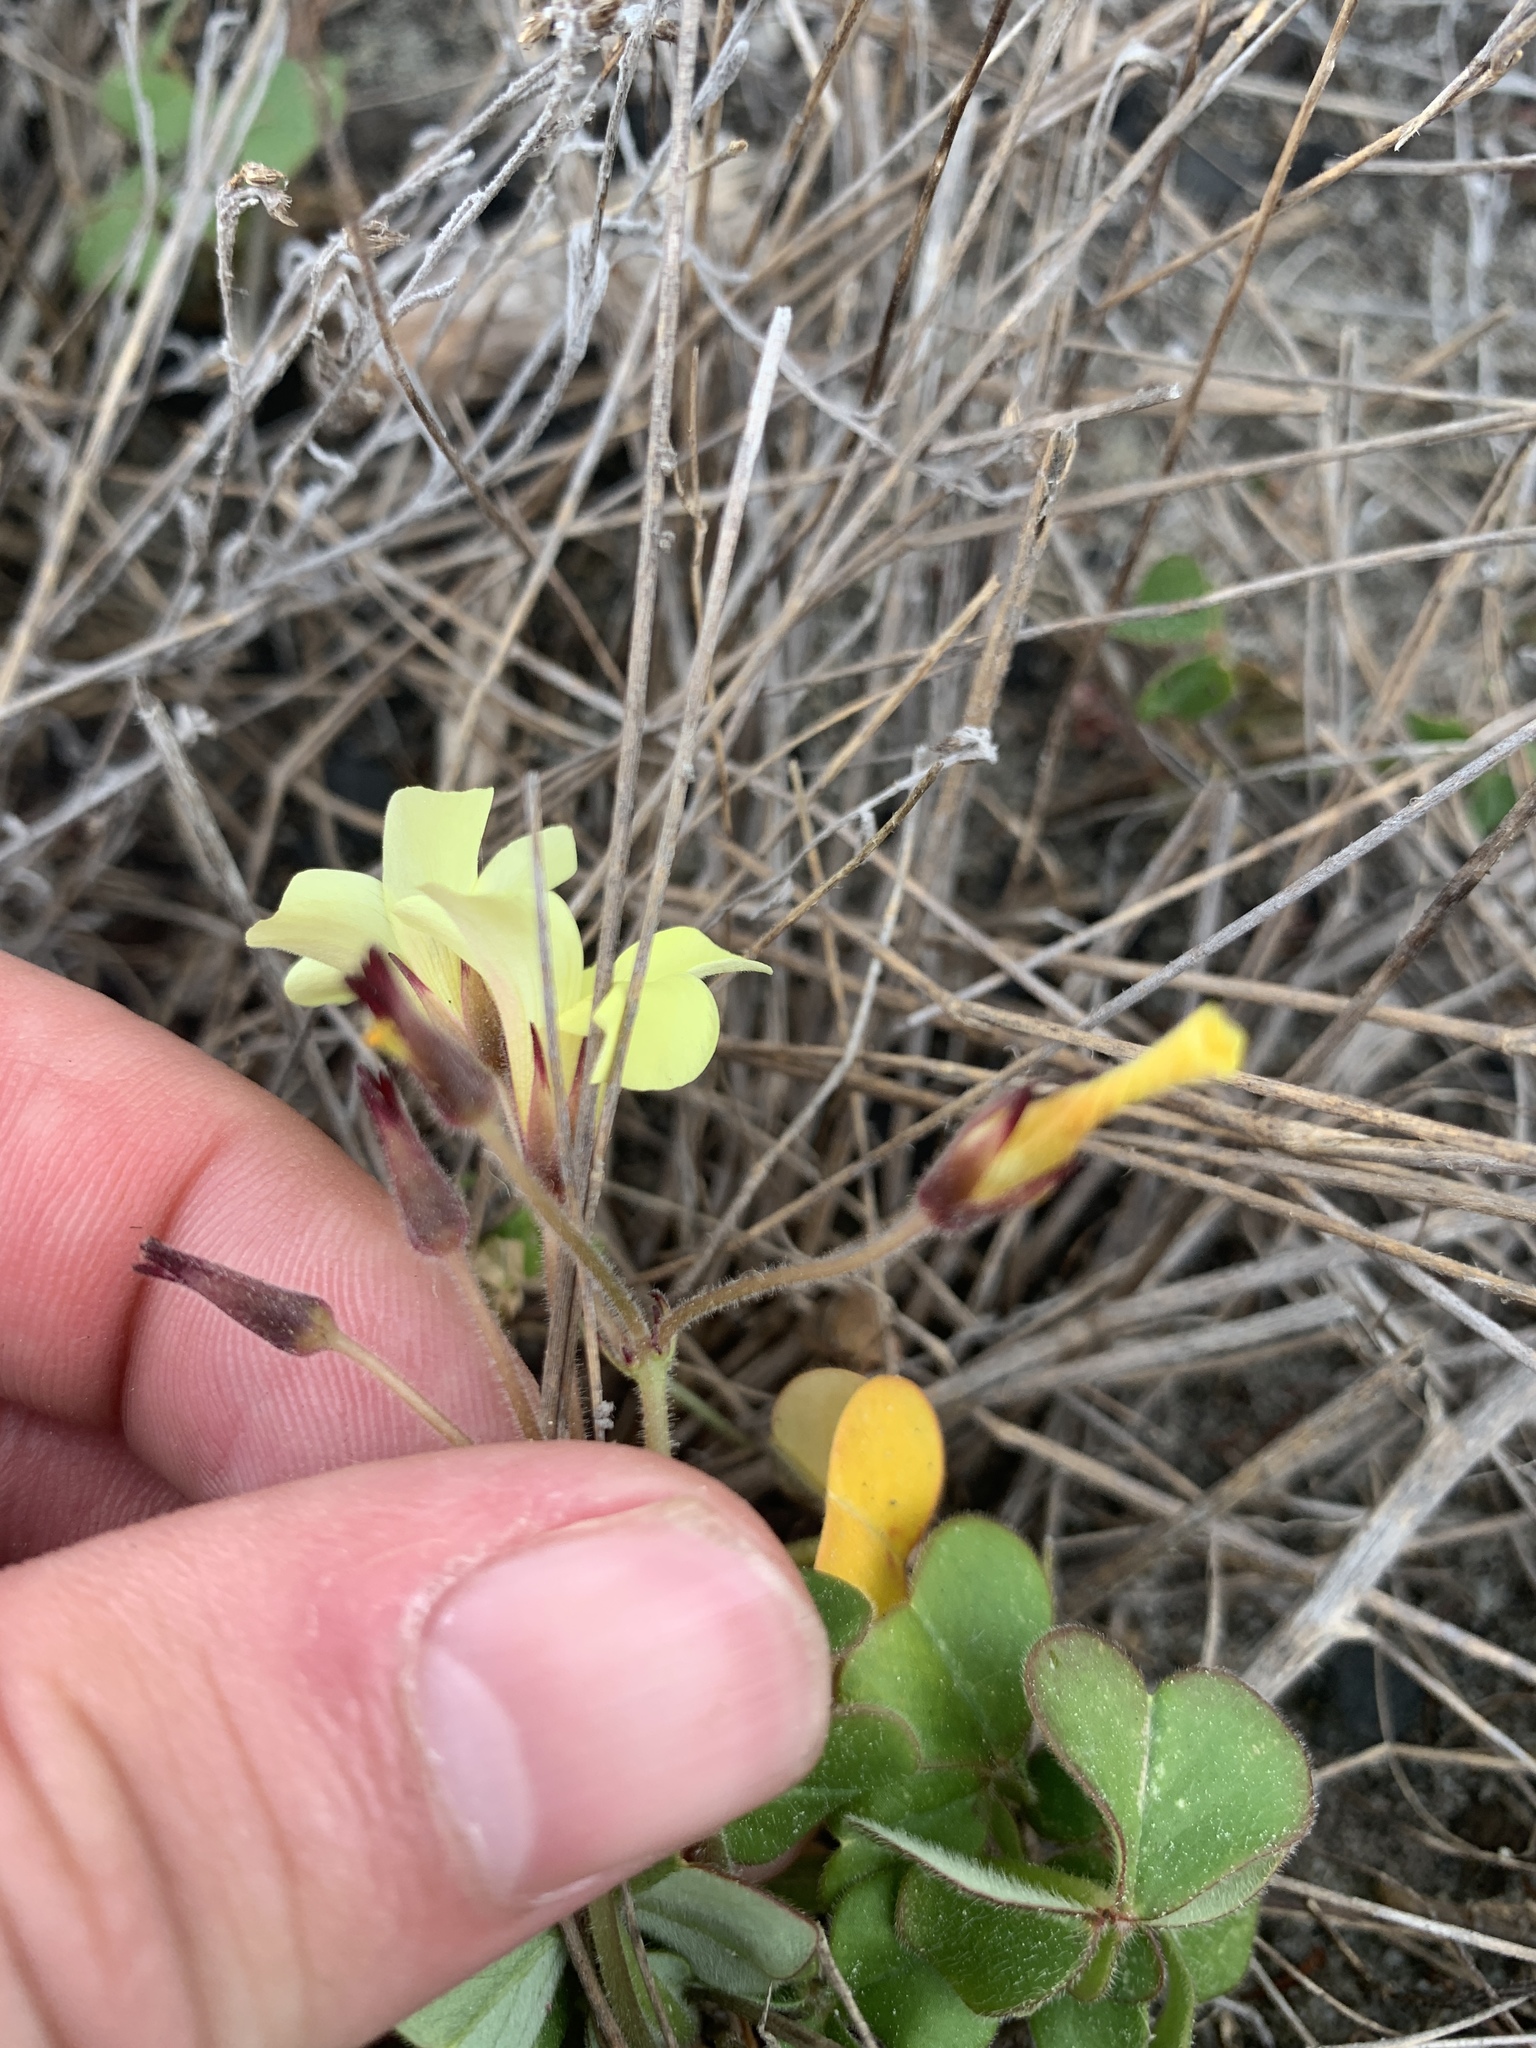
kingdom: Plantae
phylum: Tracheophyta
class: Magnoliopsida
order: Oxalidales
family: Oxalidaceae
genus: Oxalis
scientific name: Oxalis pes-caprae
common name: Bermuda-buttercup
